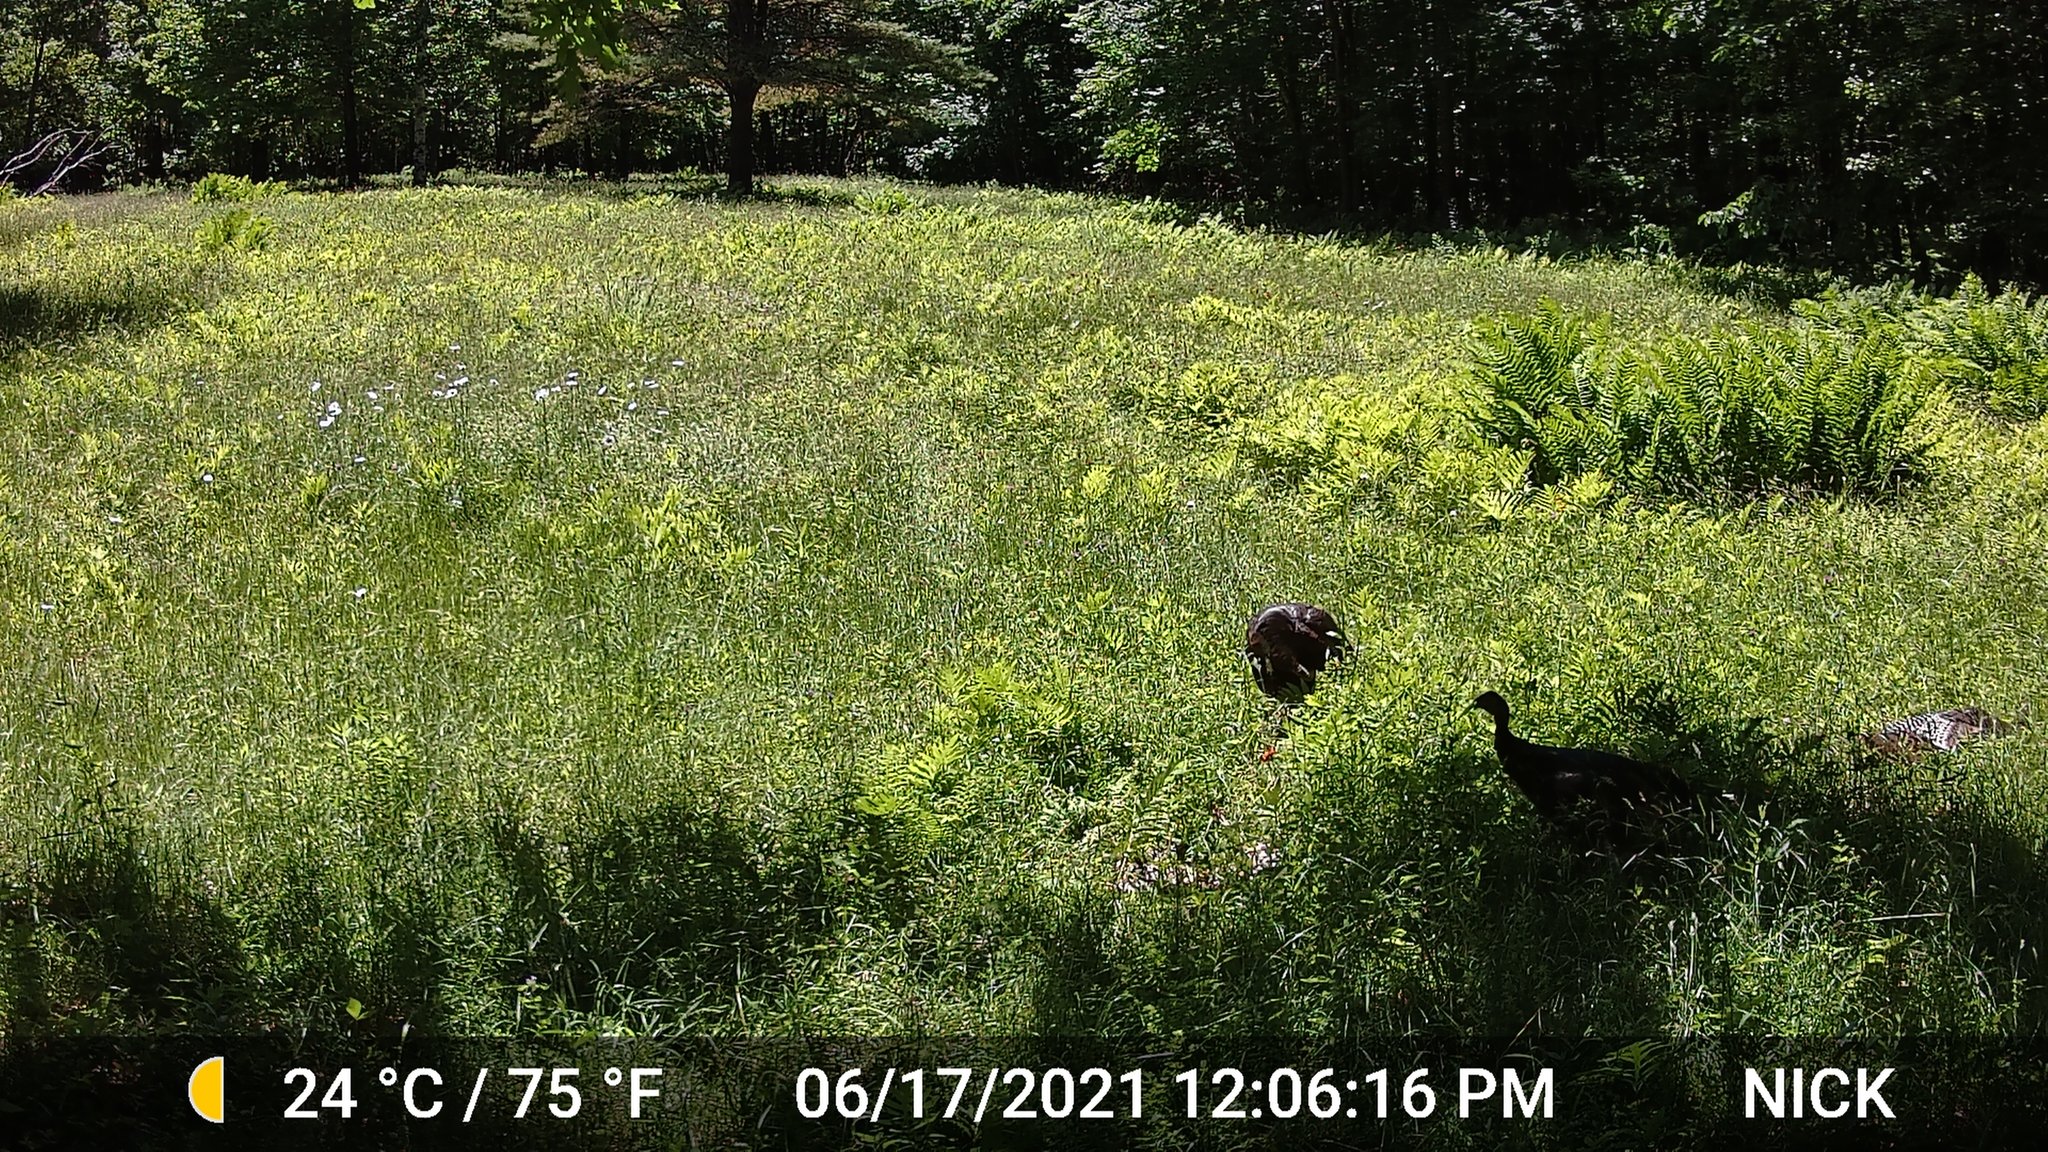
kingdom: Animalia
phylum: Chordata
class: Aves
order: Galliformes
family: Phasianidae
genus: Meleagris
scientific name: Meleagris gallopavo
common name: Wild turkey
